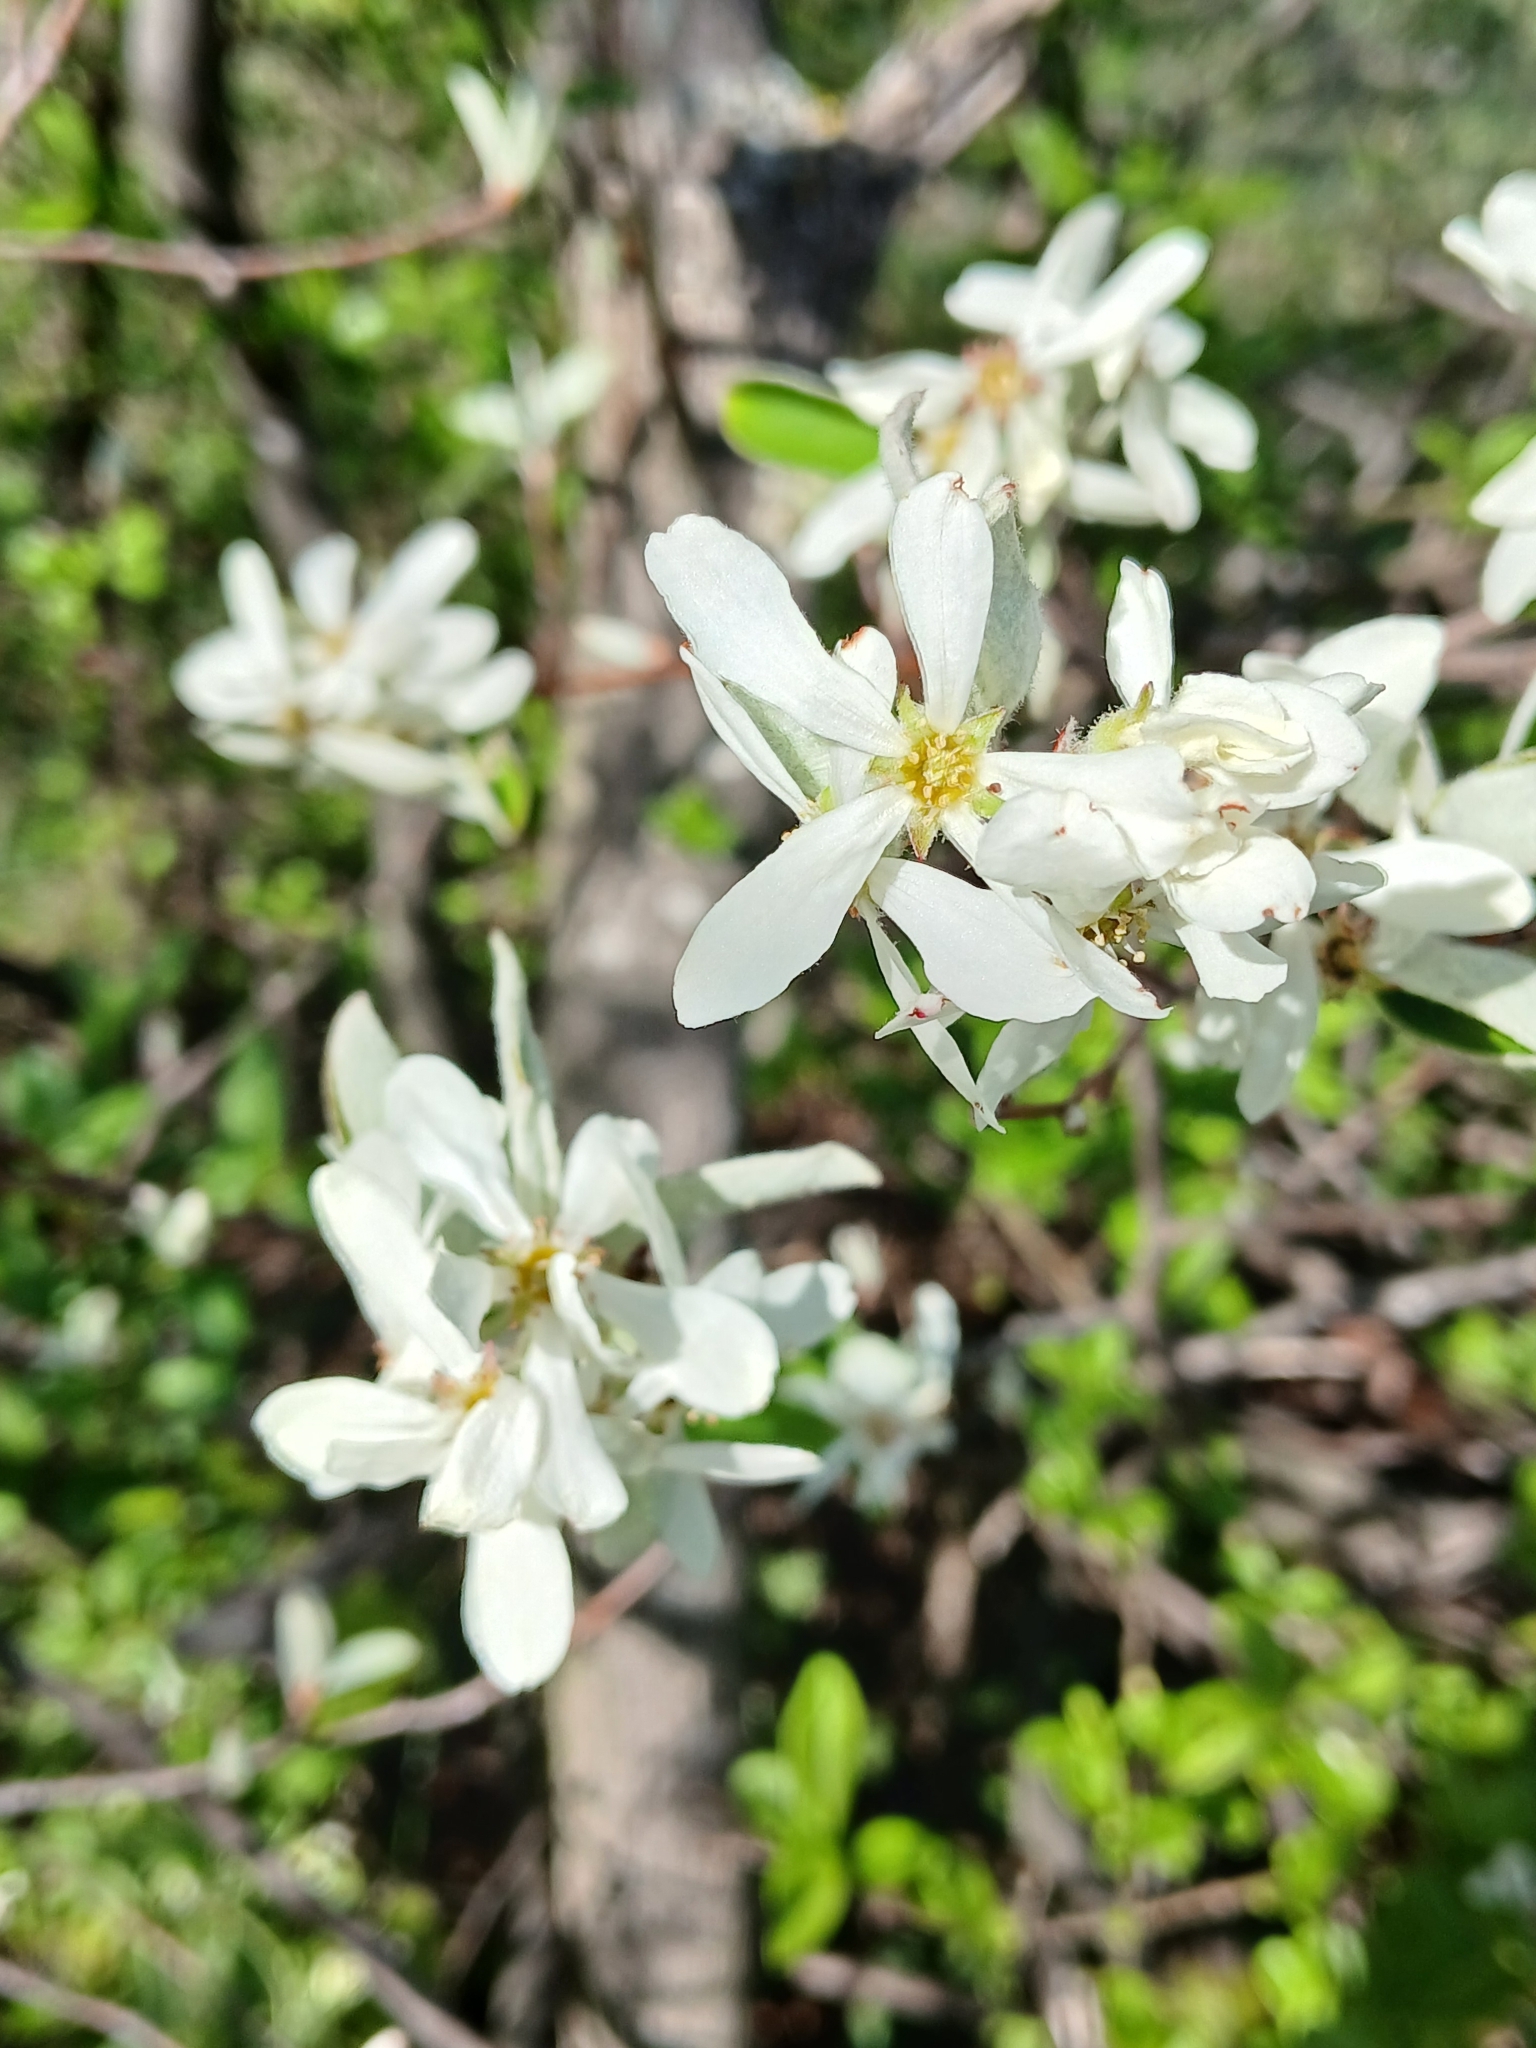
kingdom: Plantae
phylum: Tracheophyta
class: Magnoliopsida
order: Rosales
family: Rosaceae
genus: Amelanchier
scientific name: Amelanchier ovalis
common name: Serviceberry
